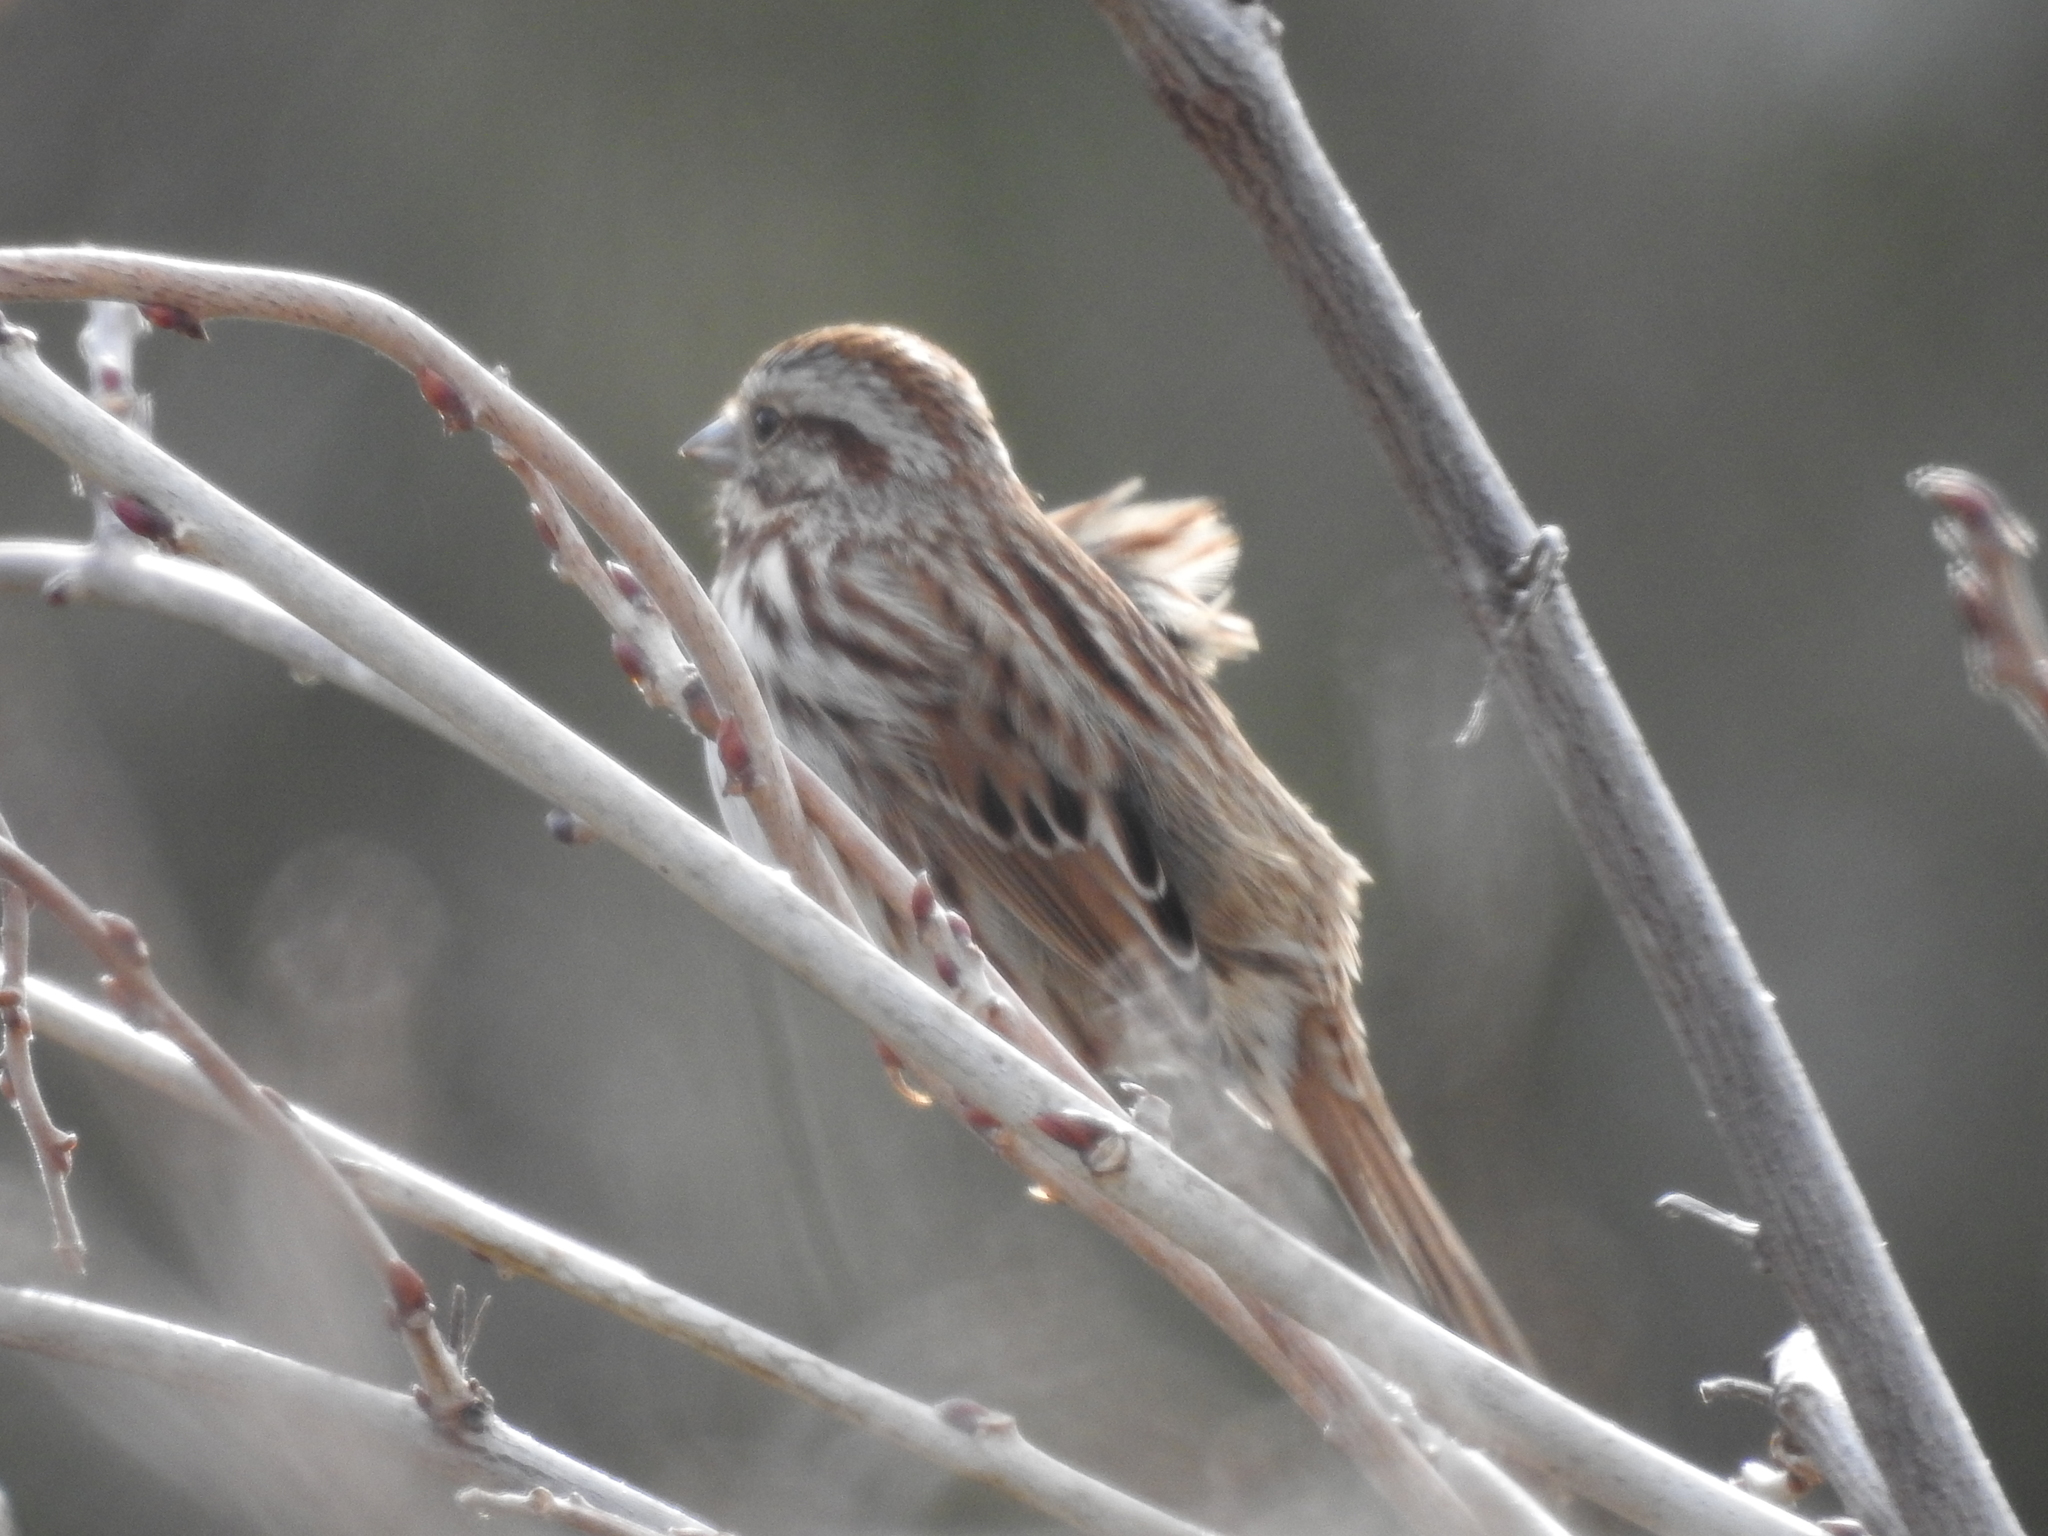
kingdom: Animalia
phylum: Chordata
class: Aves
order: Passeriformes
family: Passerellidae
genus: Melospiza
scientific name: Melospiza melodia
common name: Song sparrow
